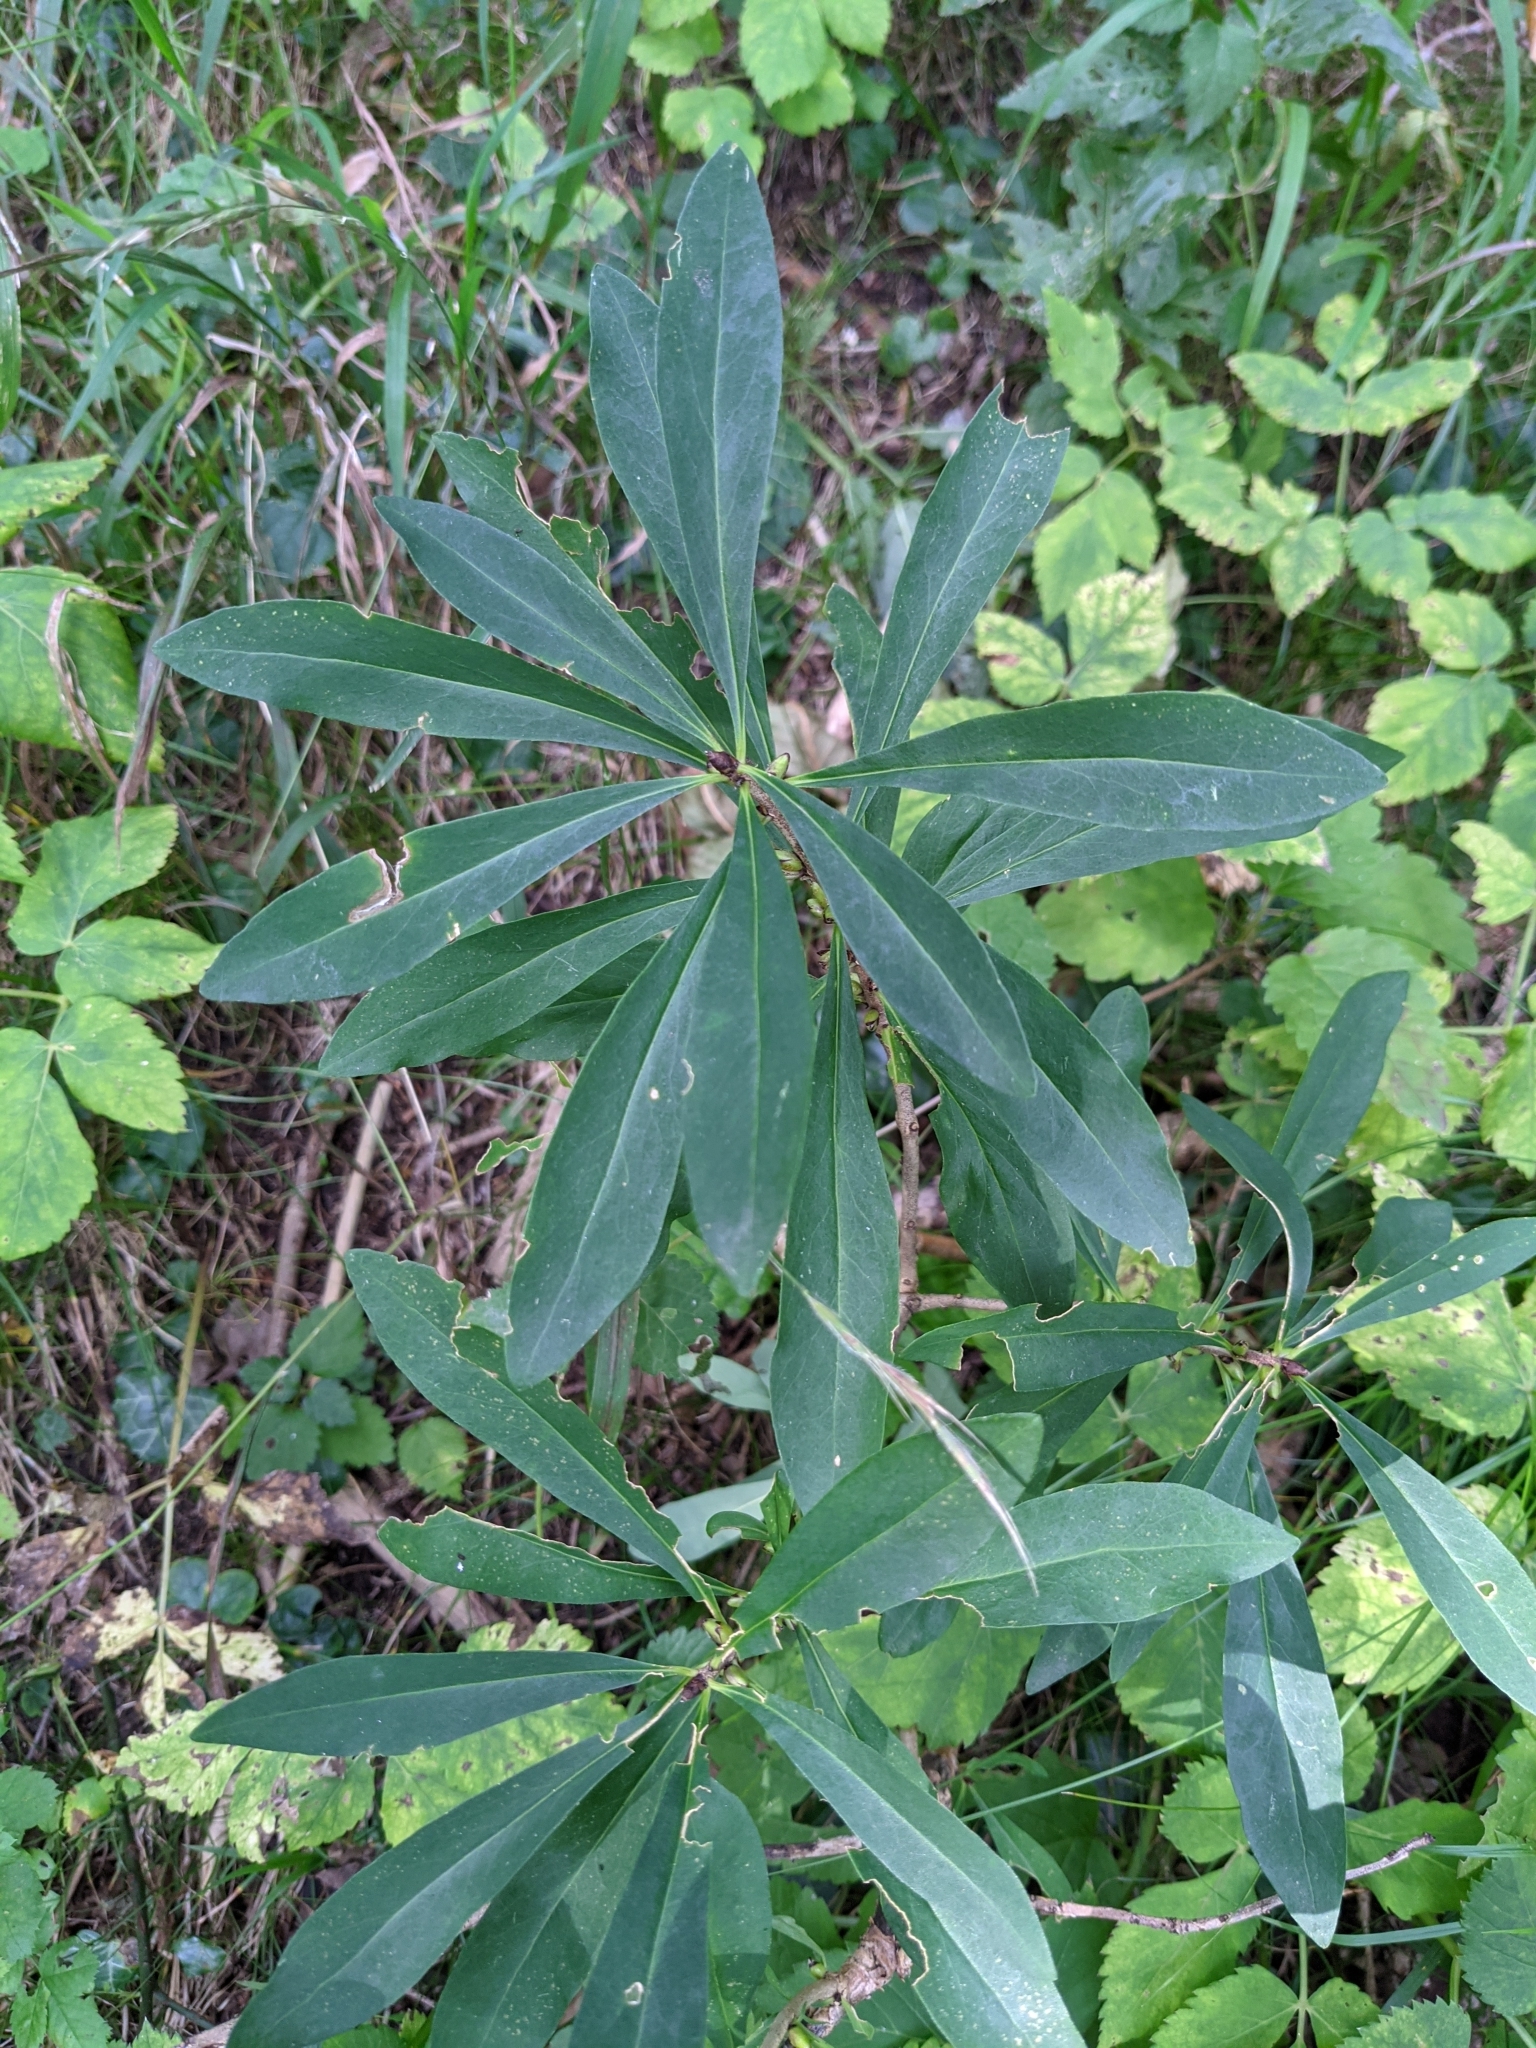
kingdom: Plantae
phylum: Tracheophyta
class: Magnoliopsida
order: Malvales
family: Thymelaeaceae
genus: Daphne
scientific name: Daphne mezereum
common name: Mezereon
